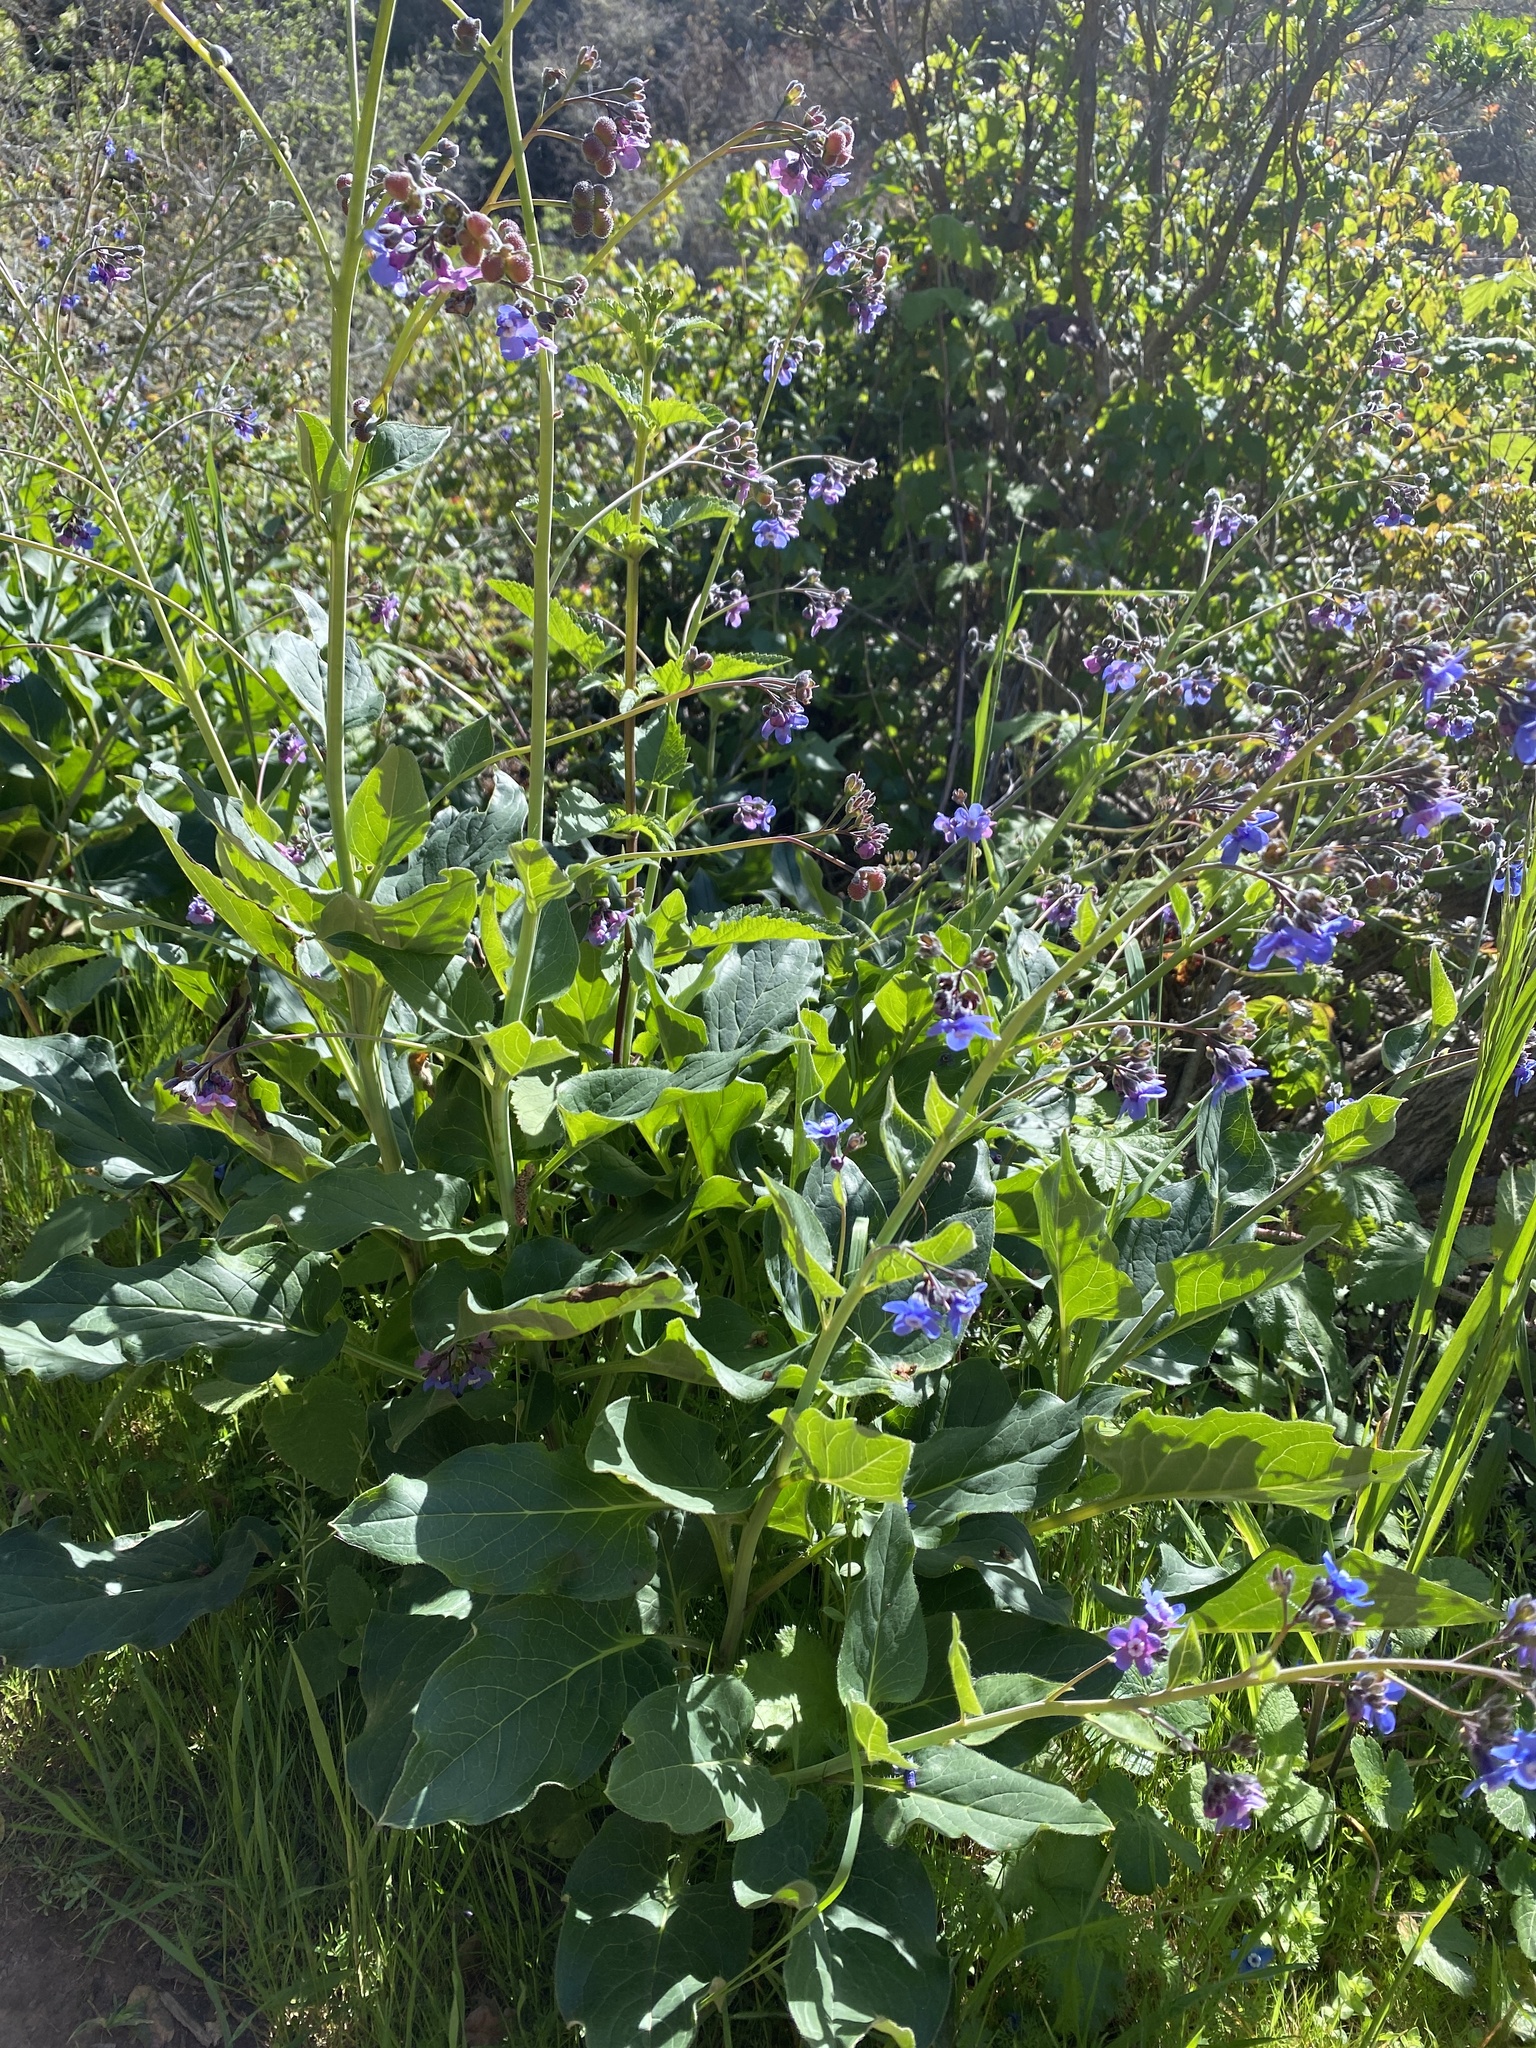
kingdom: Plantae
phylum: Tracheophyta
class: Magnoliopsida
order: Boraginales
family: Boraginaceae
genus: Adelinia
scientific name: Adelinia grande
